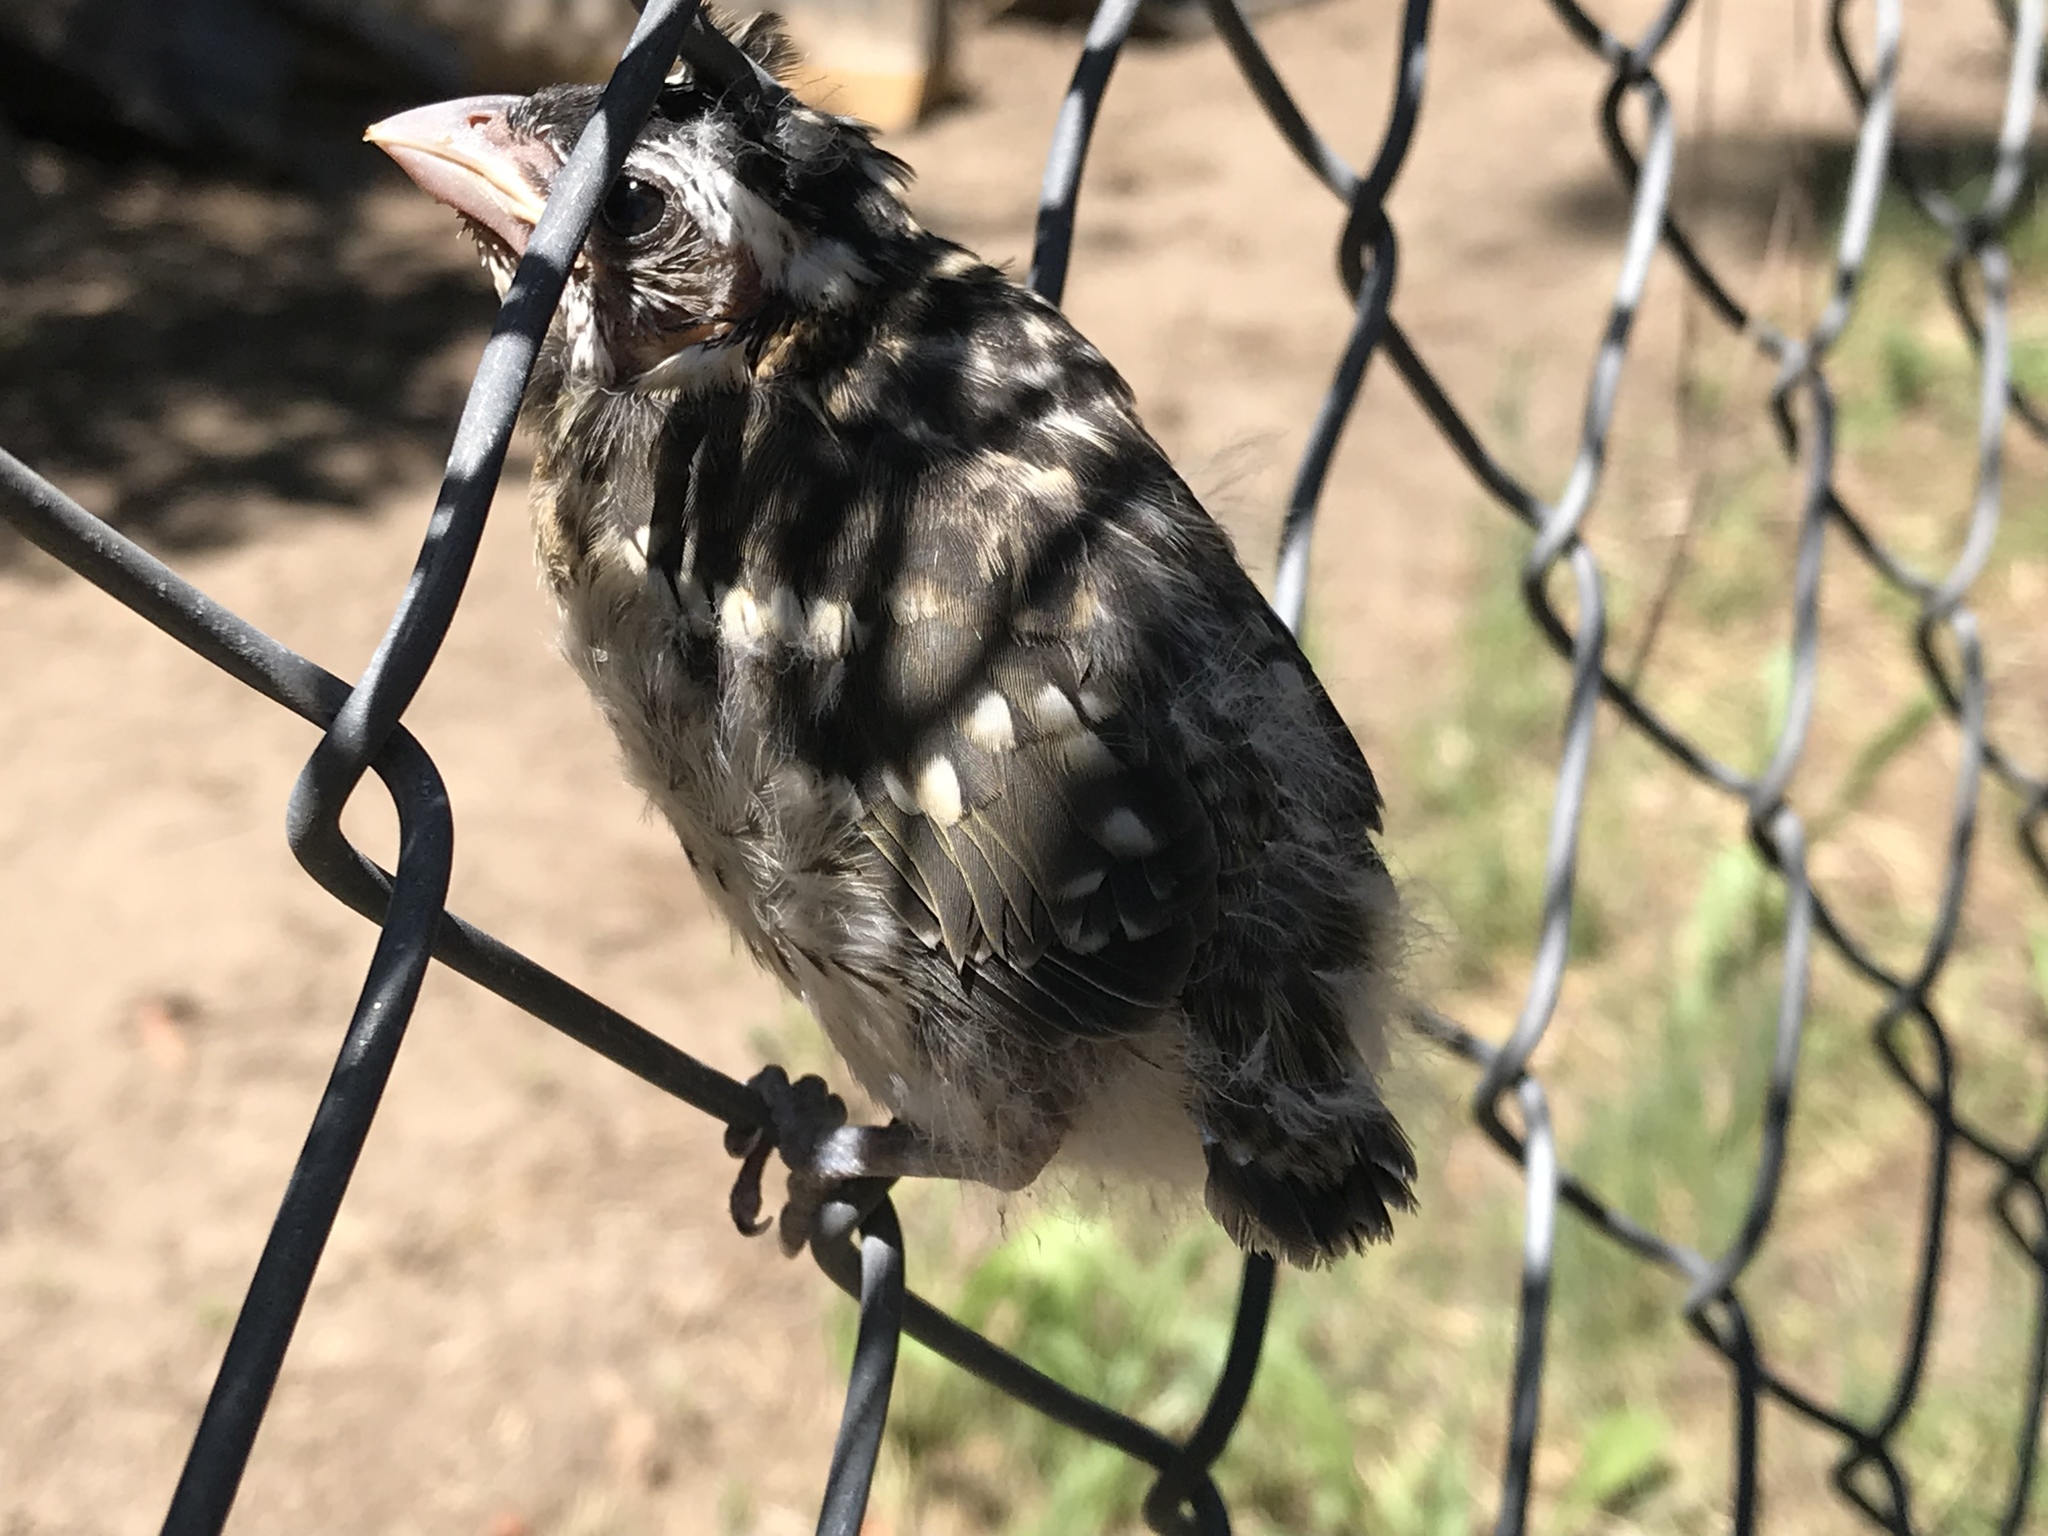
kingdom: Animalia
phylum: Chordata
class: Aves
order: Passeriformes
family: Cardinalidae
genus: Pheucticus
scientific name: Pheucticus melanocephalus
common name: Black-headed grosbeak
